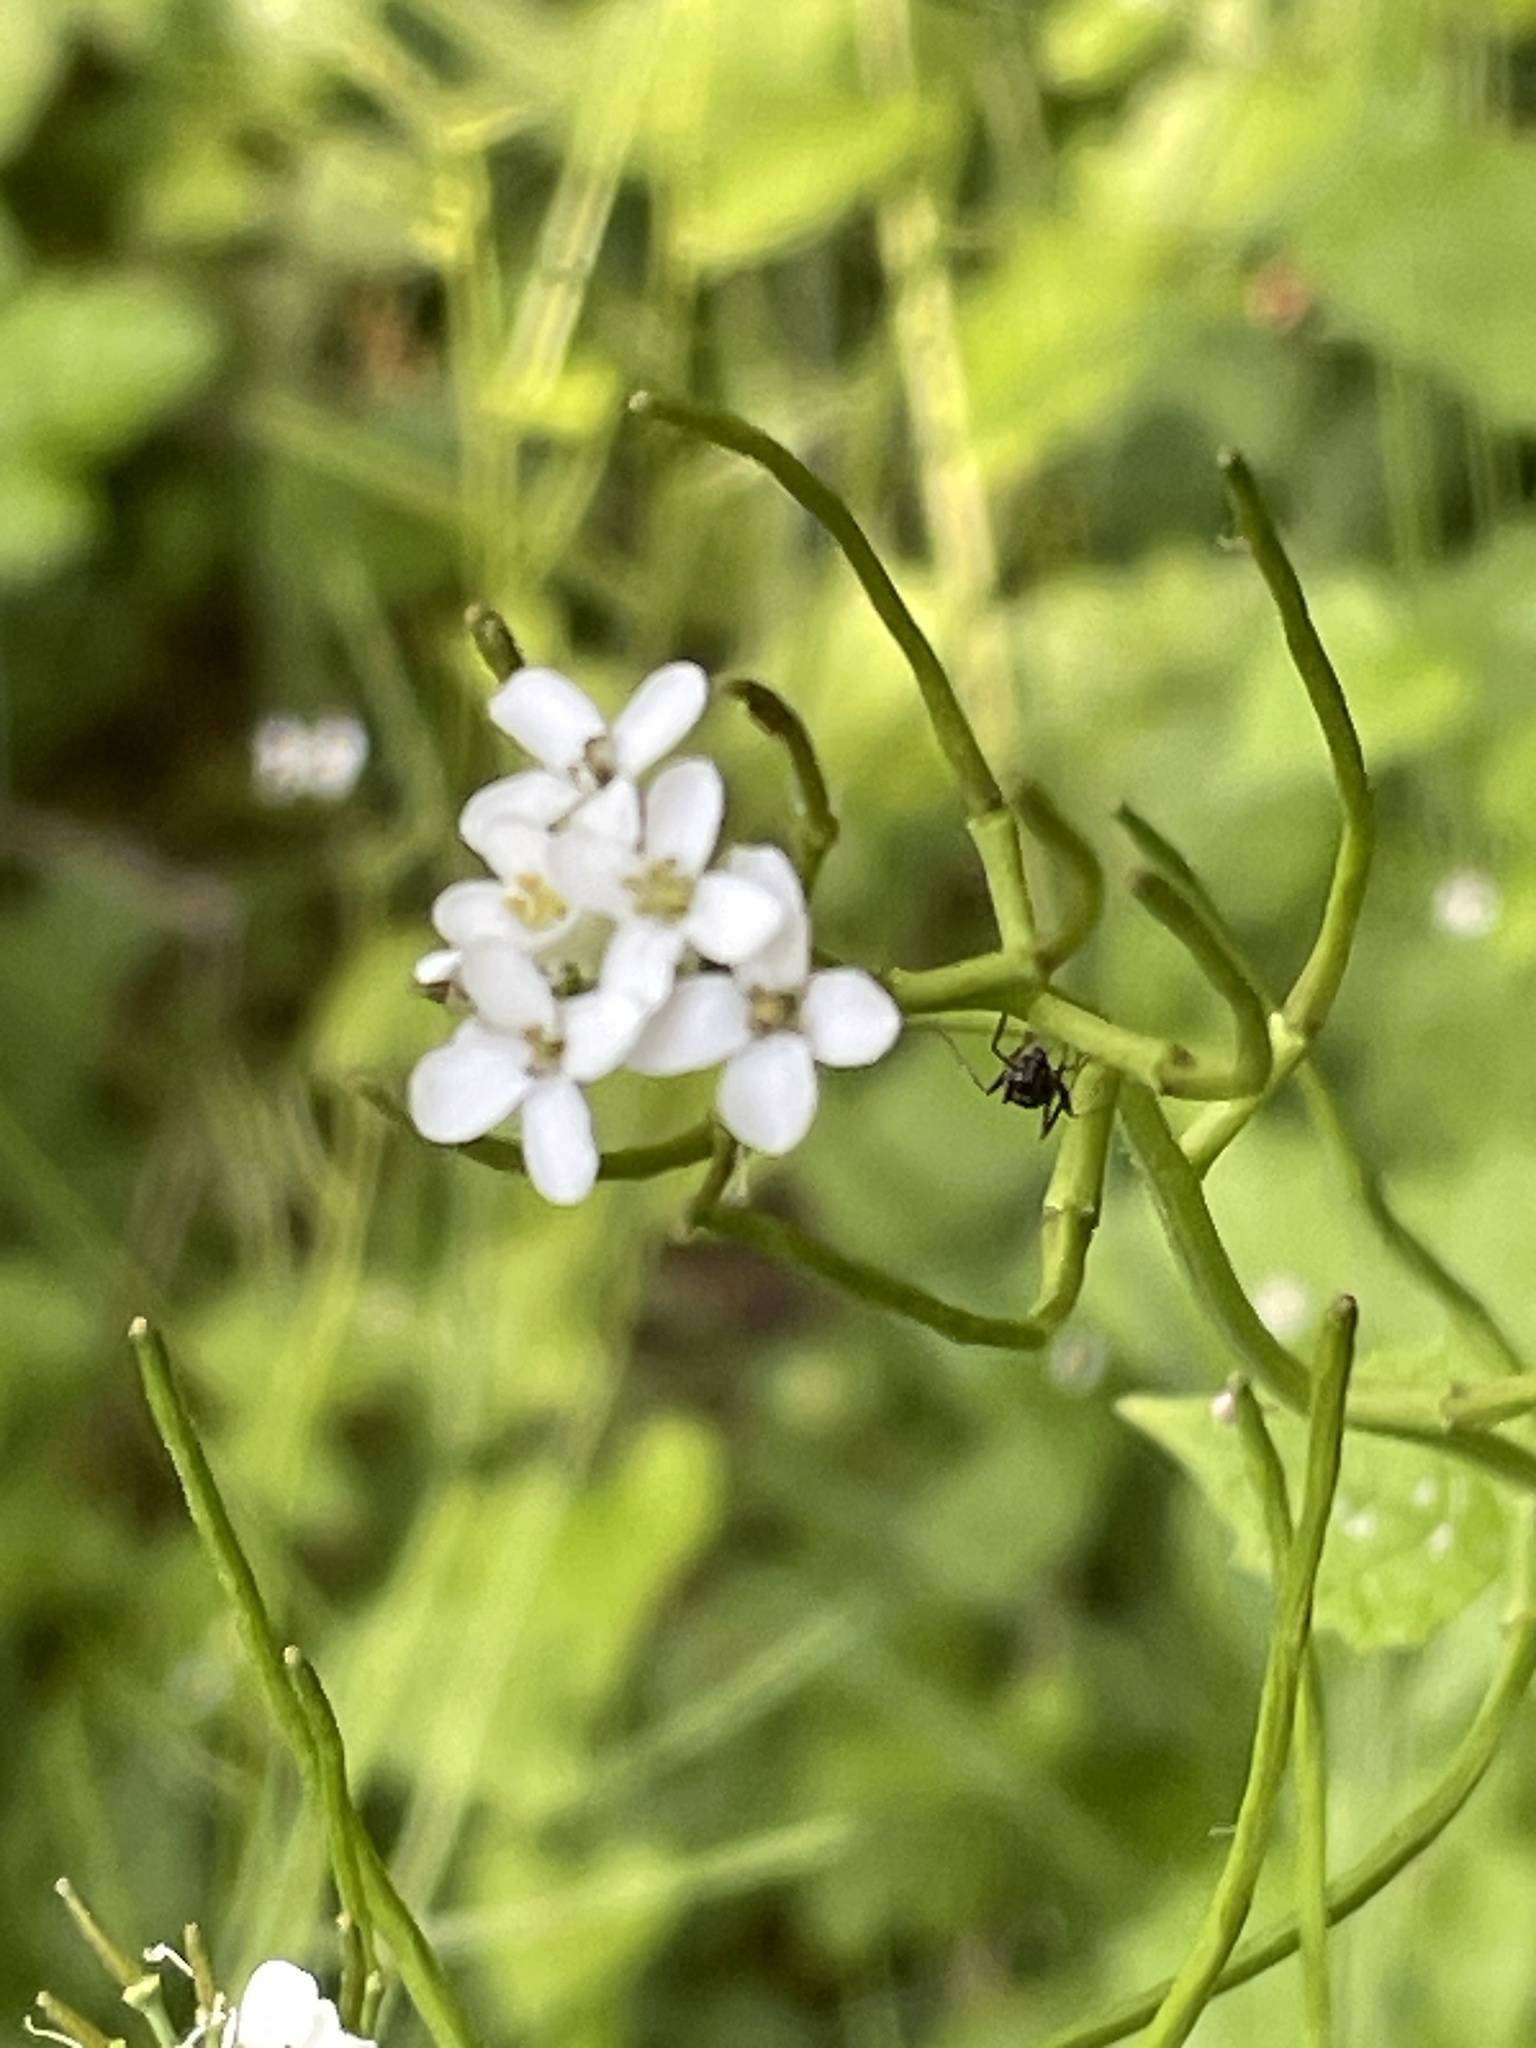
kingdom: Plantae
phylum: Tracheophyta
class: Magnoliopsida
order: Brassicales
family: Brassicaceae
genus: Alliaria
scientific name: Alliaria petiolata
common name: Garlic mustard
